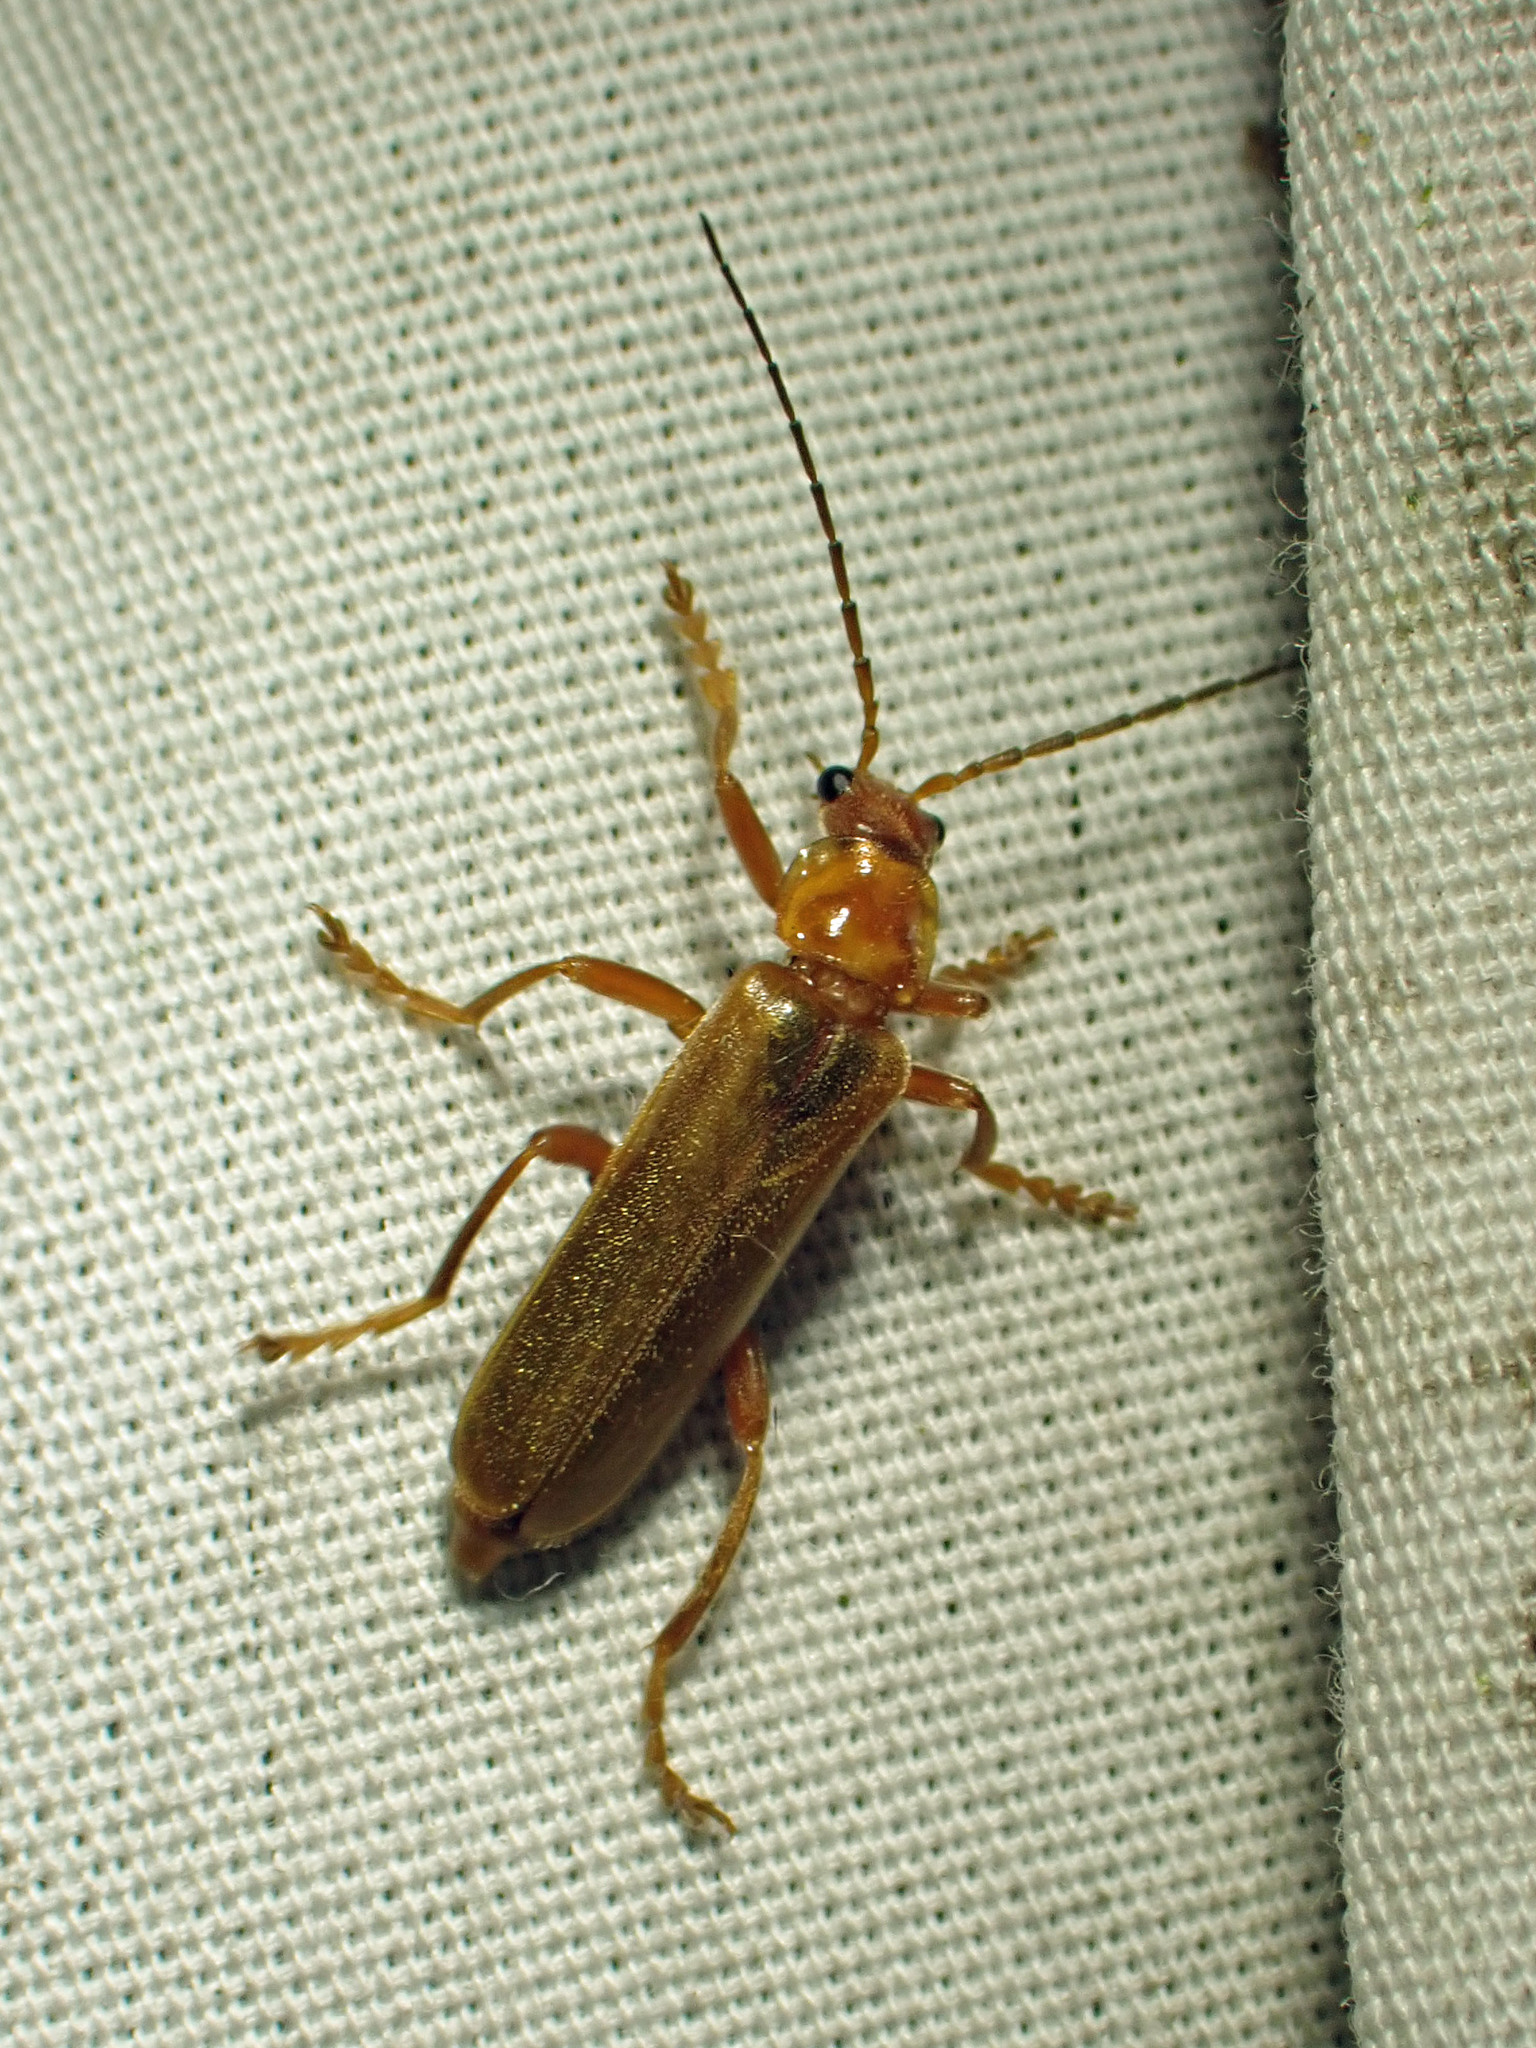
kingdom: Animalia
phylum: Arthropoda
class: Insecta
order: Coleoptera
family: Cantharidae
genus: Cantharis
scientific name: Cantharis rufa
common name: Red-spotted soldier beetle
